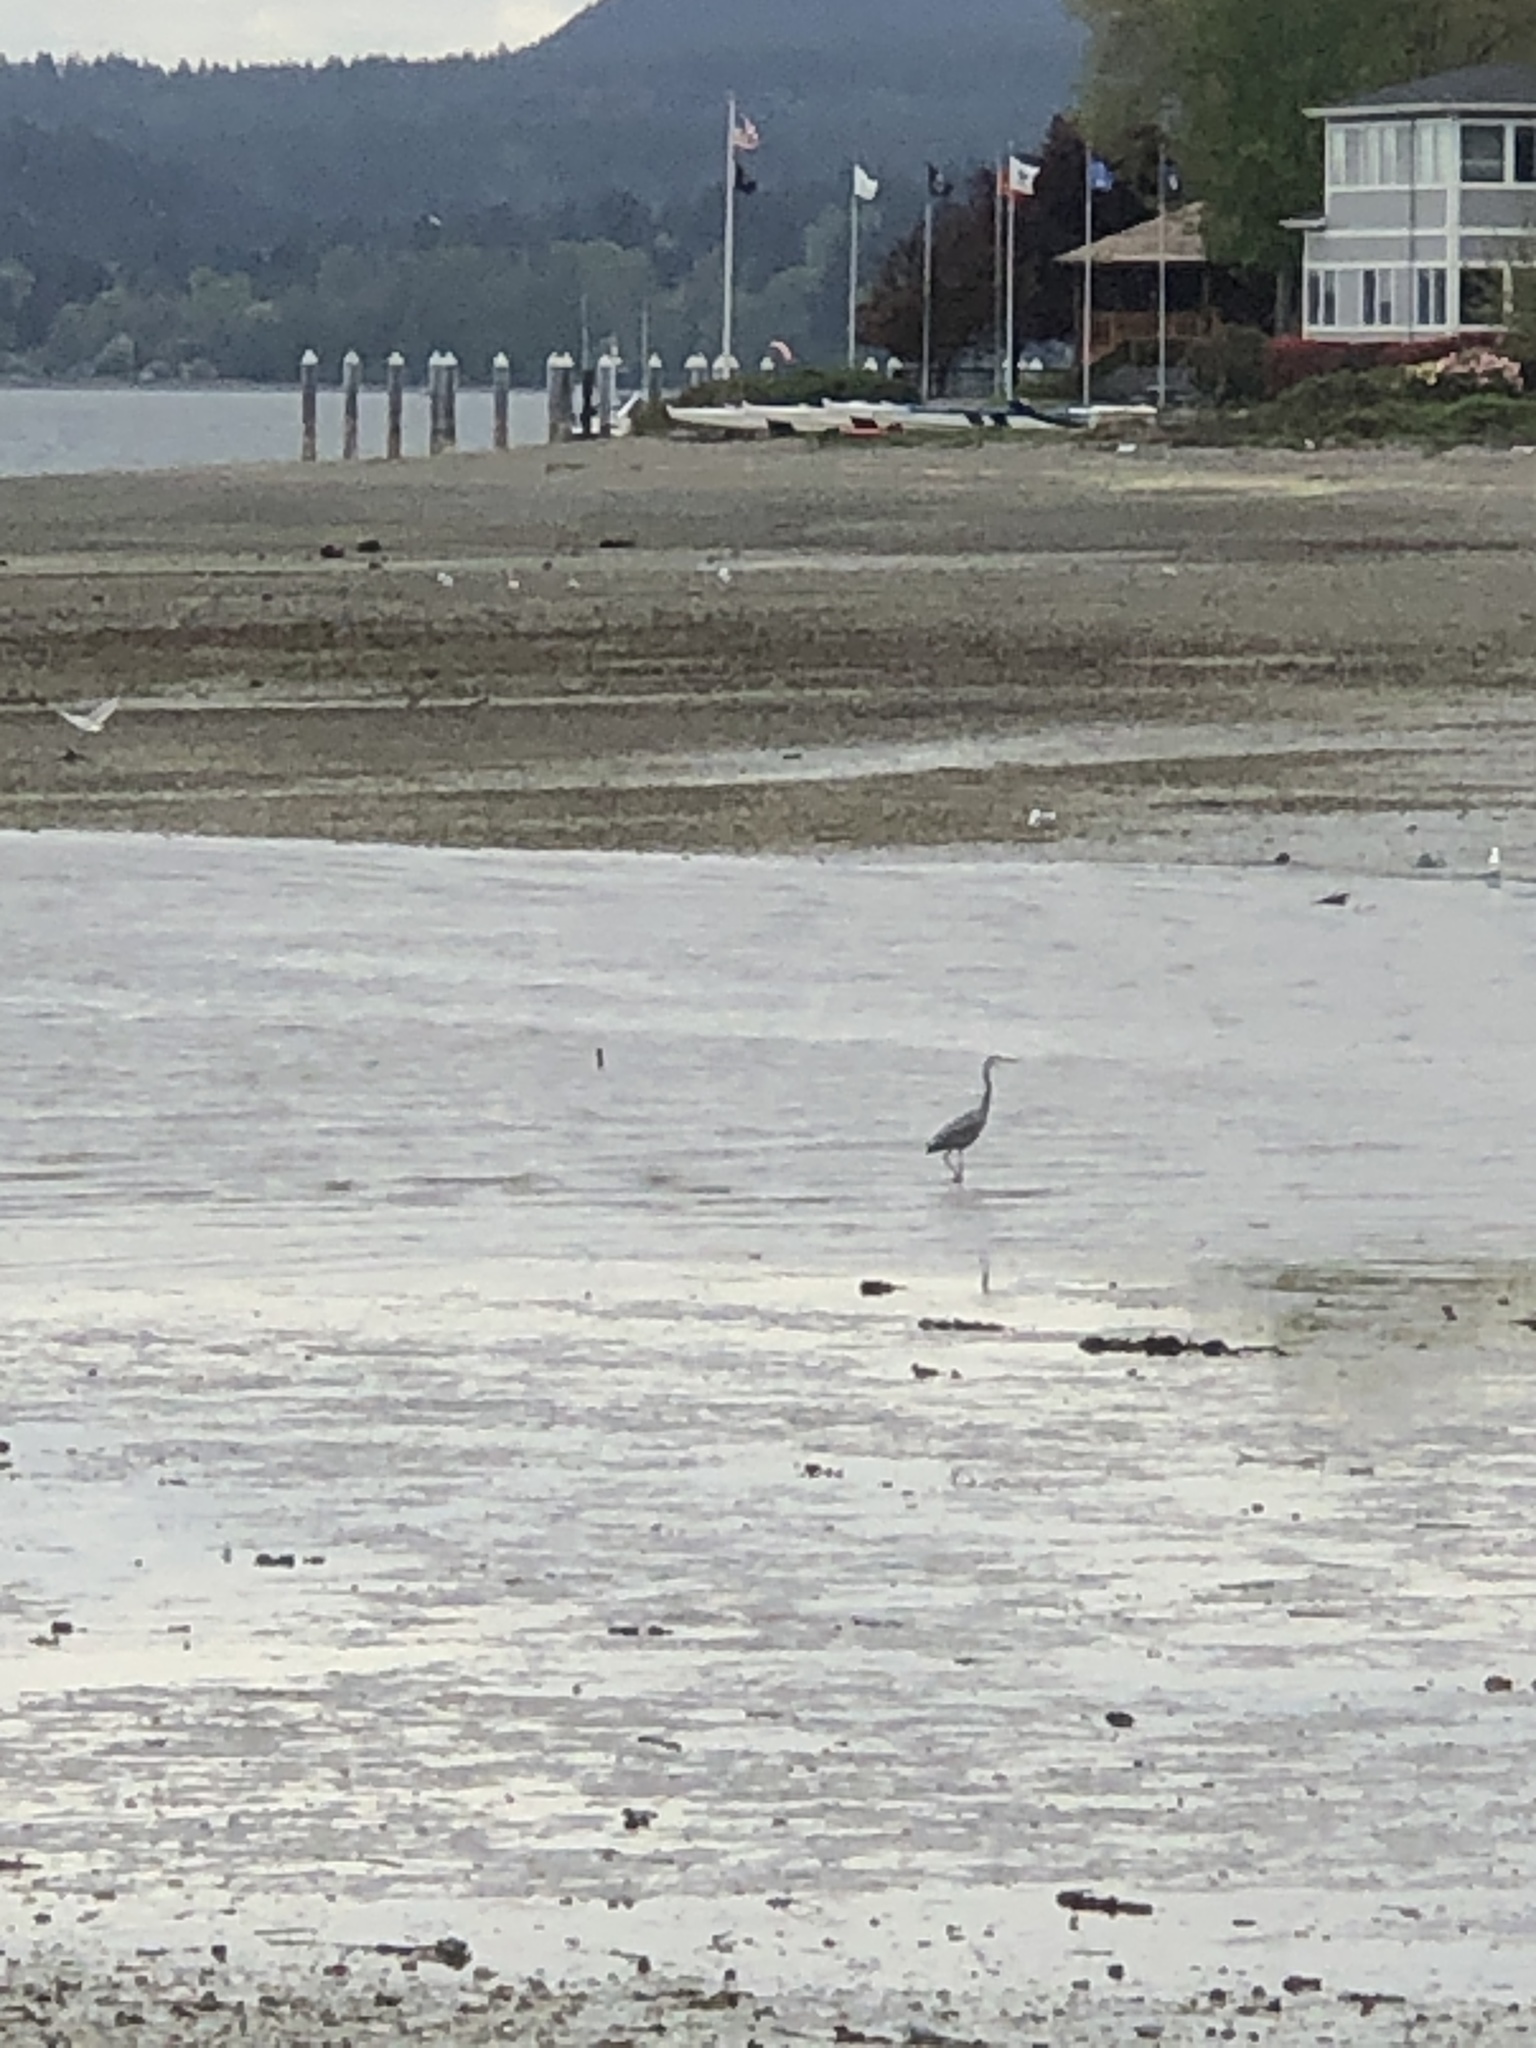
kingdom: Animalia
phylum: Chordata
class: Aves
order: Pelecaniformes
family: Ardeidae
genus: Ardea
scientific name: Ardea herodias
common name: Great blue heron
